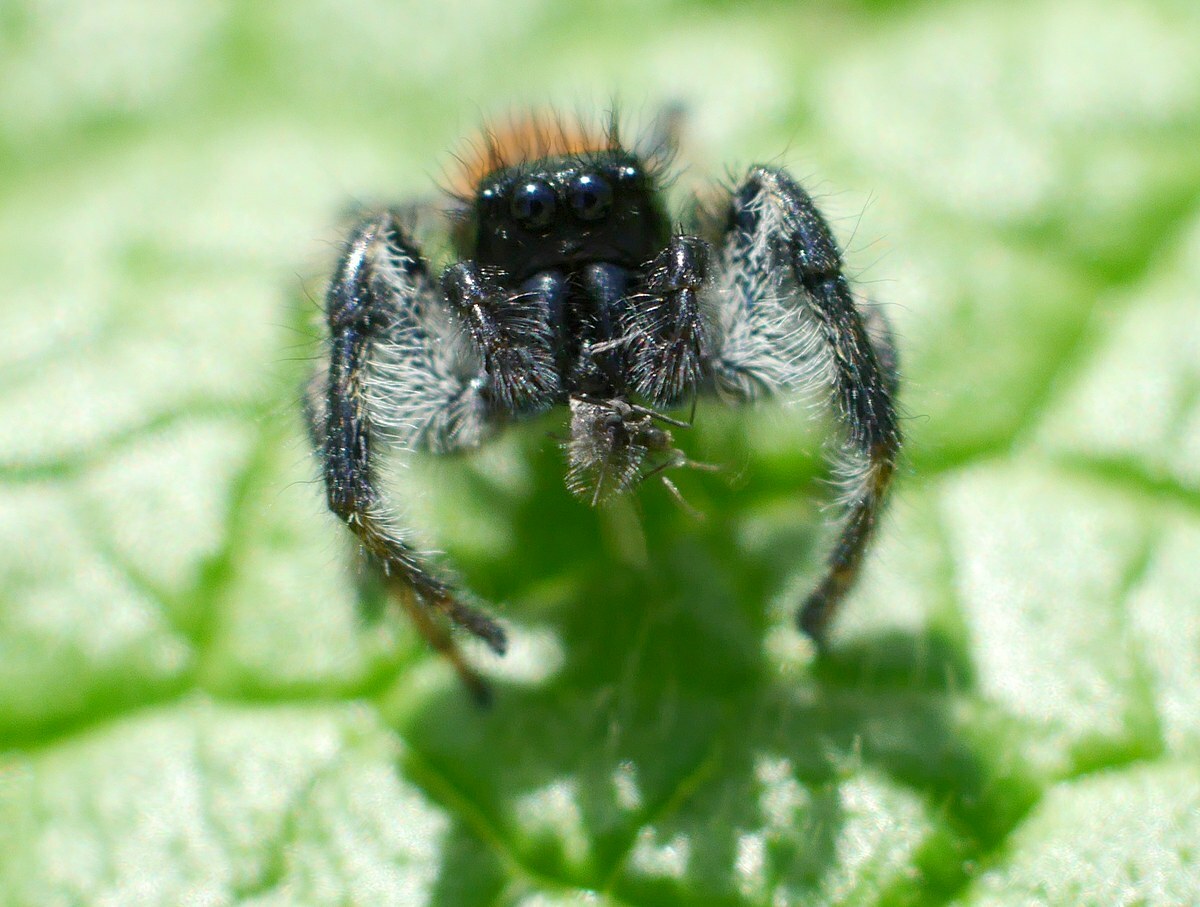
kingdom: Animalia
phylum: Arthropoda
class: Arachnida
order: Araneae
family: Salticidae
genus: Carrhotus
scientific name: Carrhotus xanthogramma
